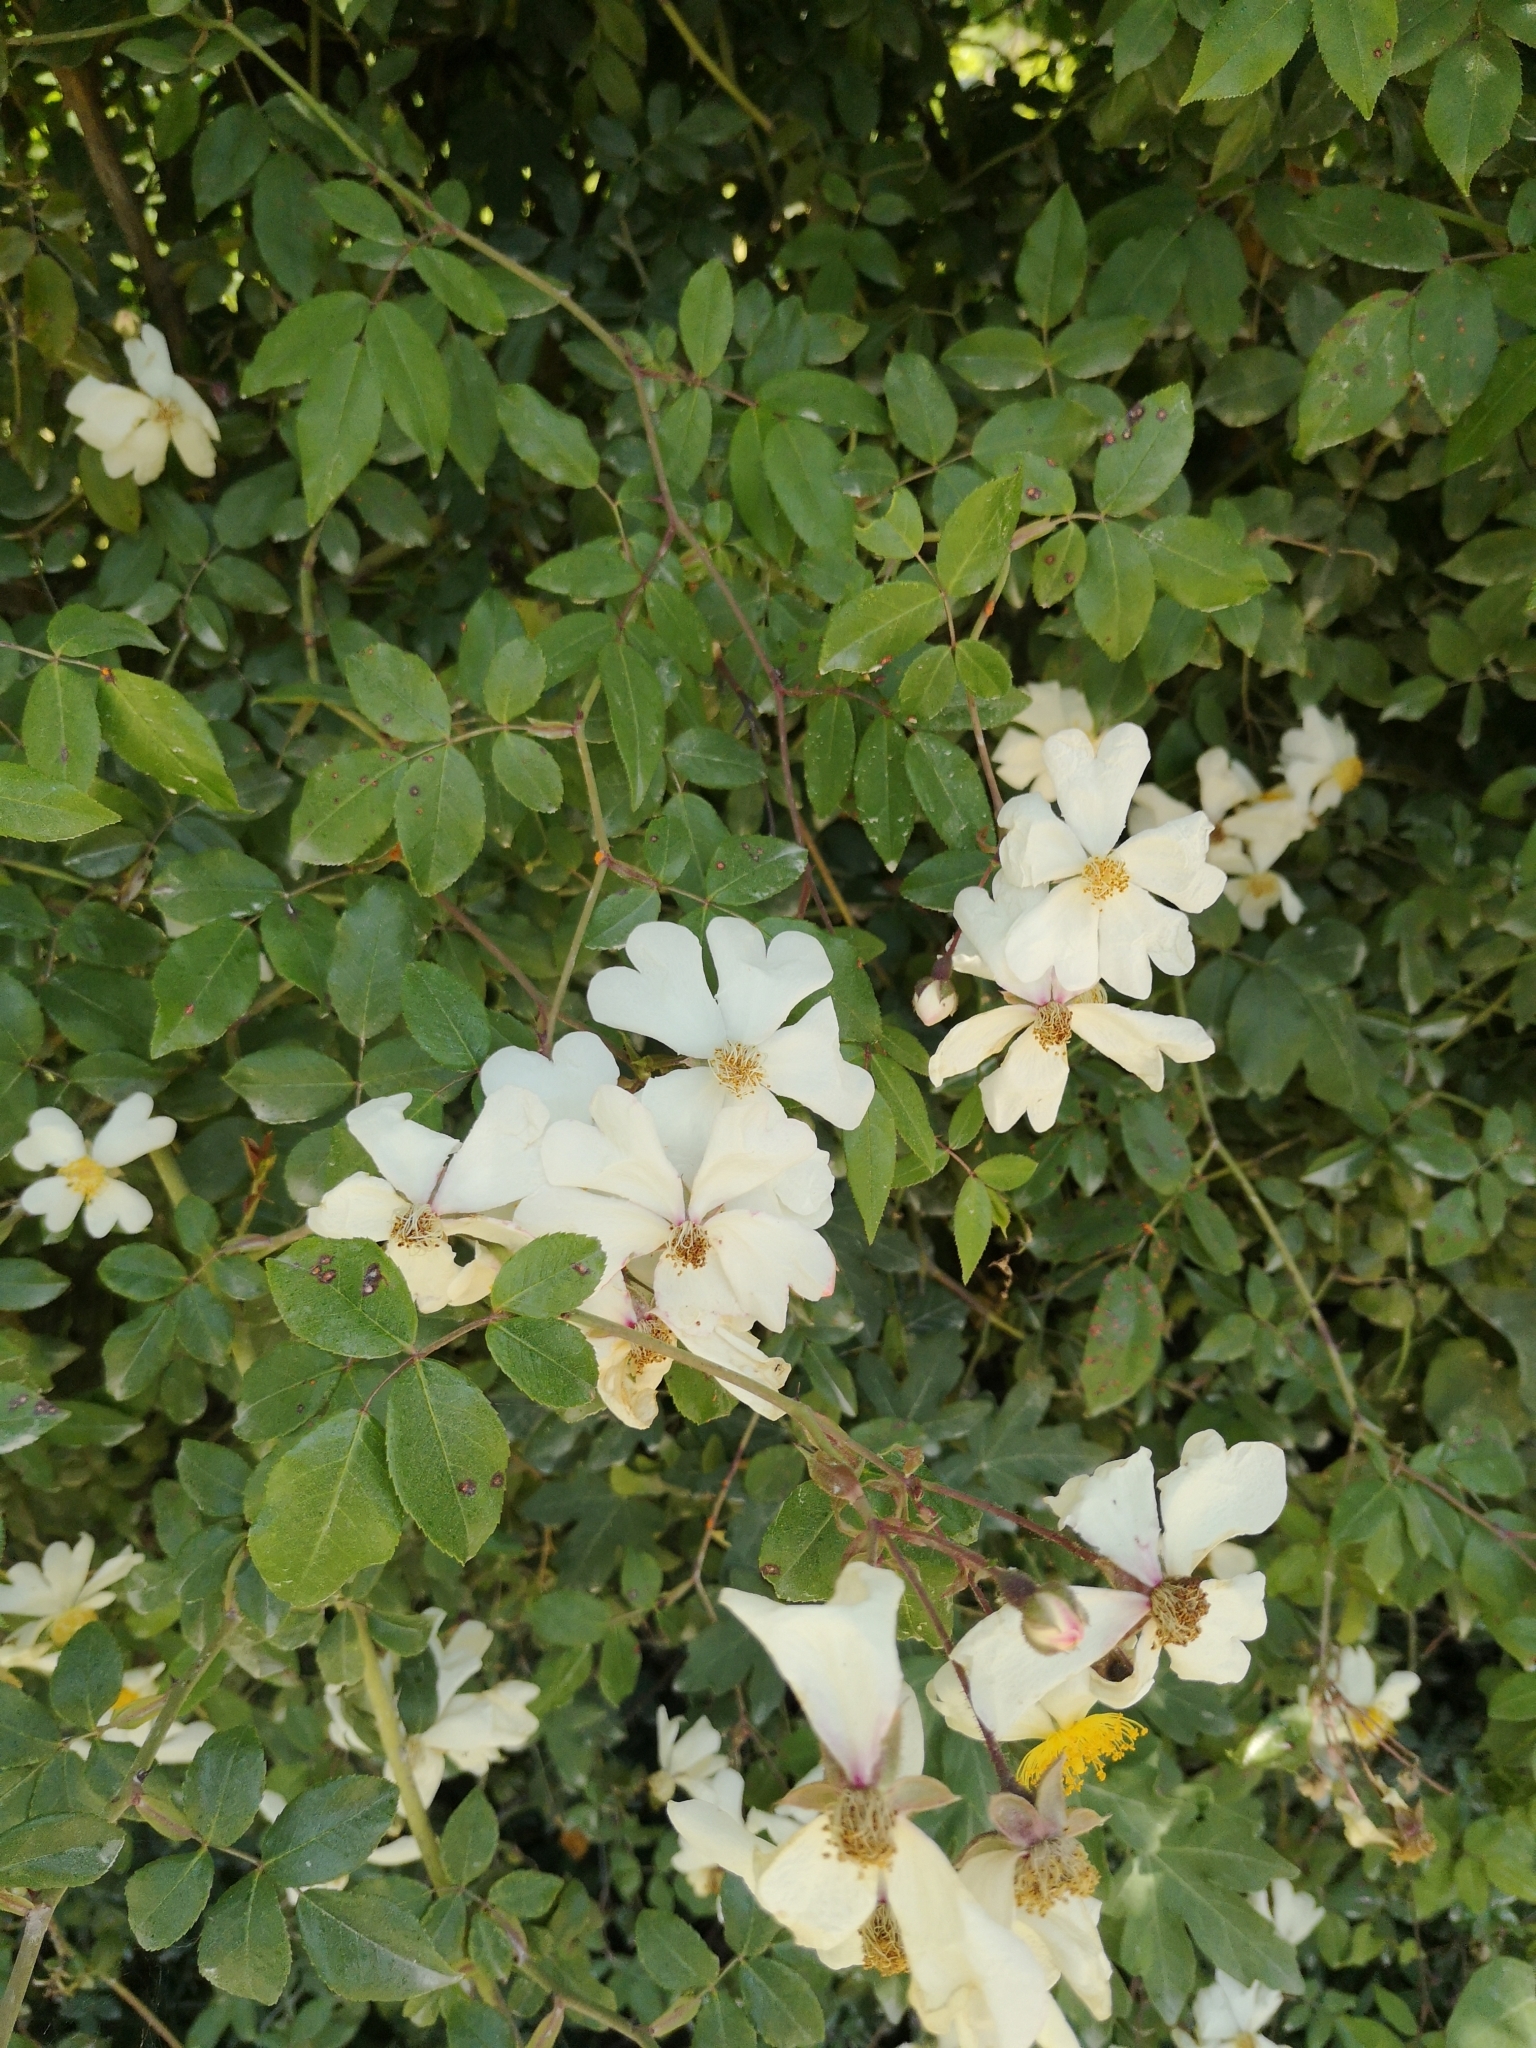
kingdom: Plantae
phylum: Tracheophyta
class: Magnoliopsida
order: Rosales
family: Rosaceae
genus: Rosa
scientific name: Rosa sempervirens
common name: Evergreen rose
